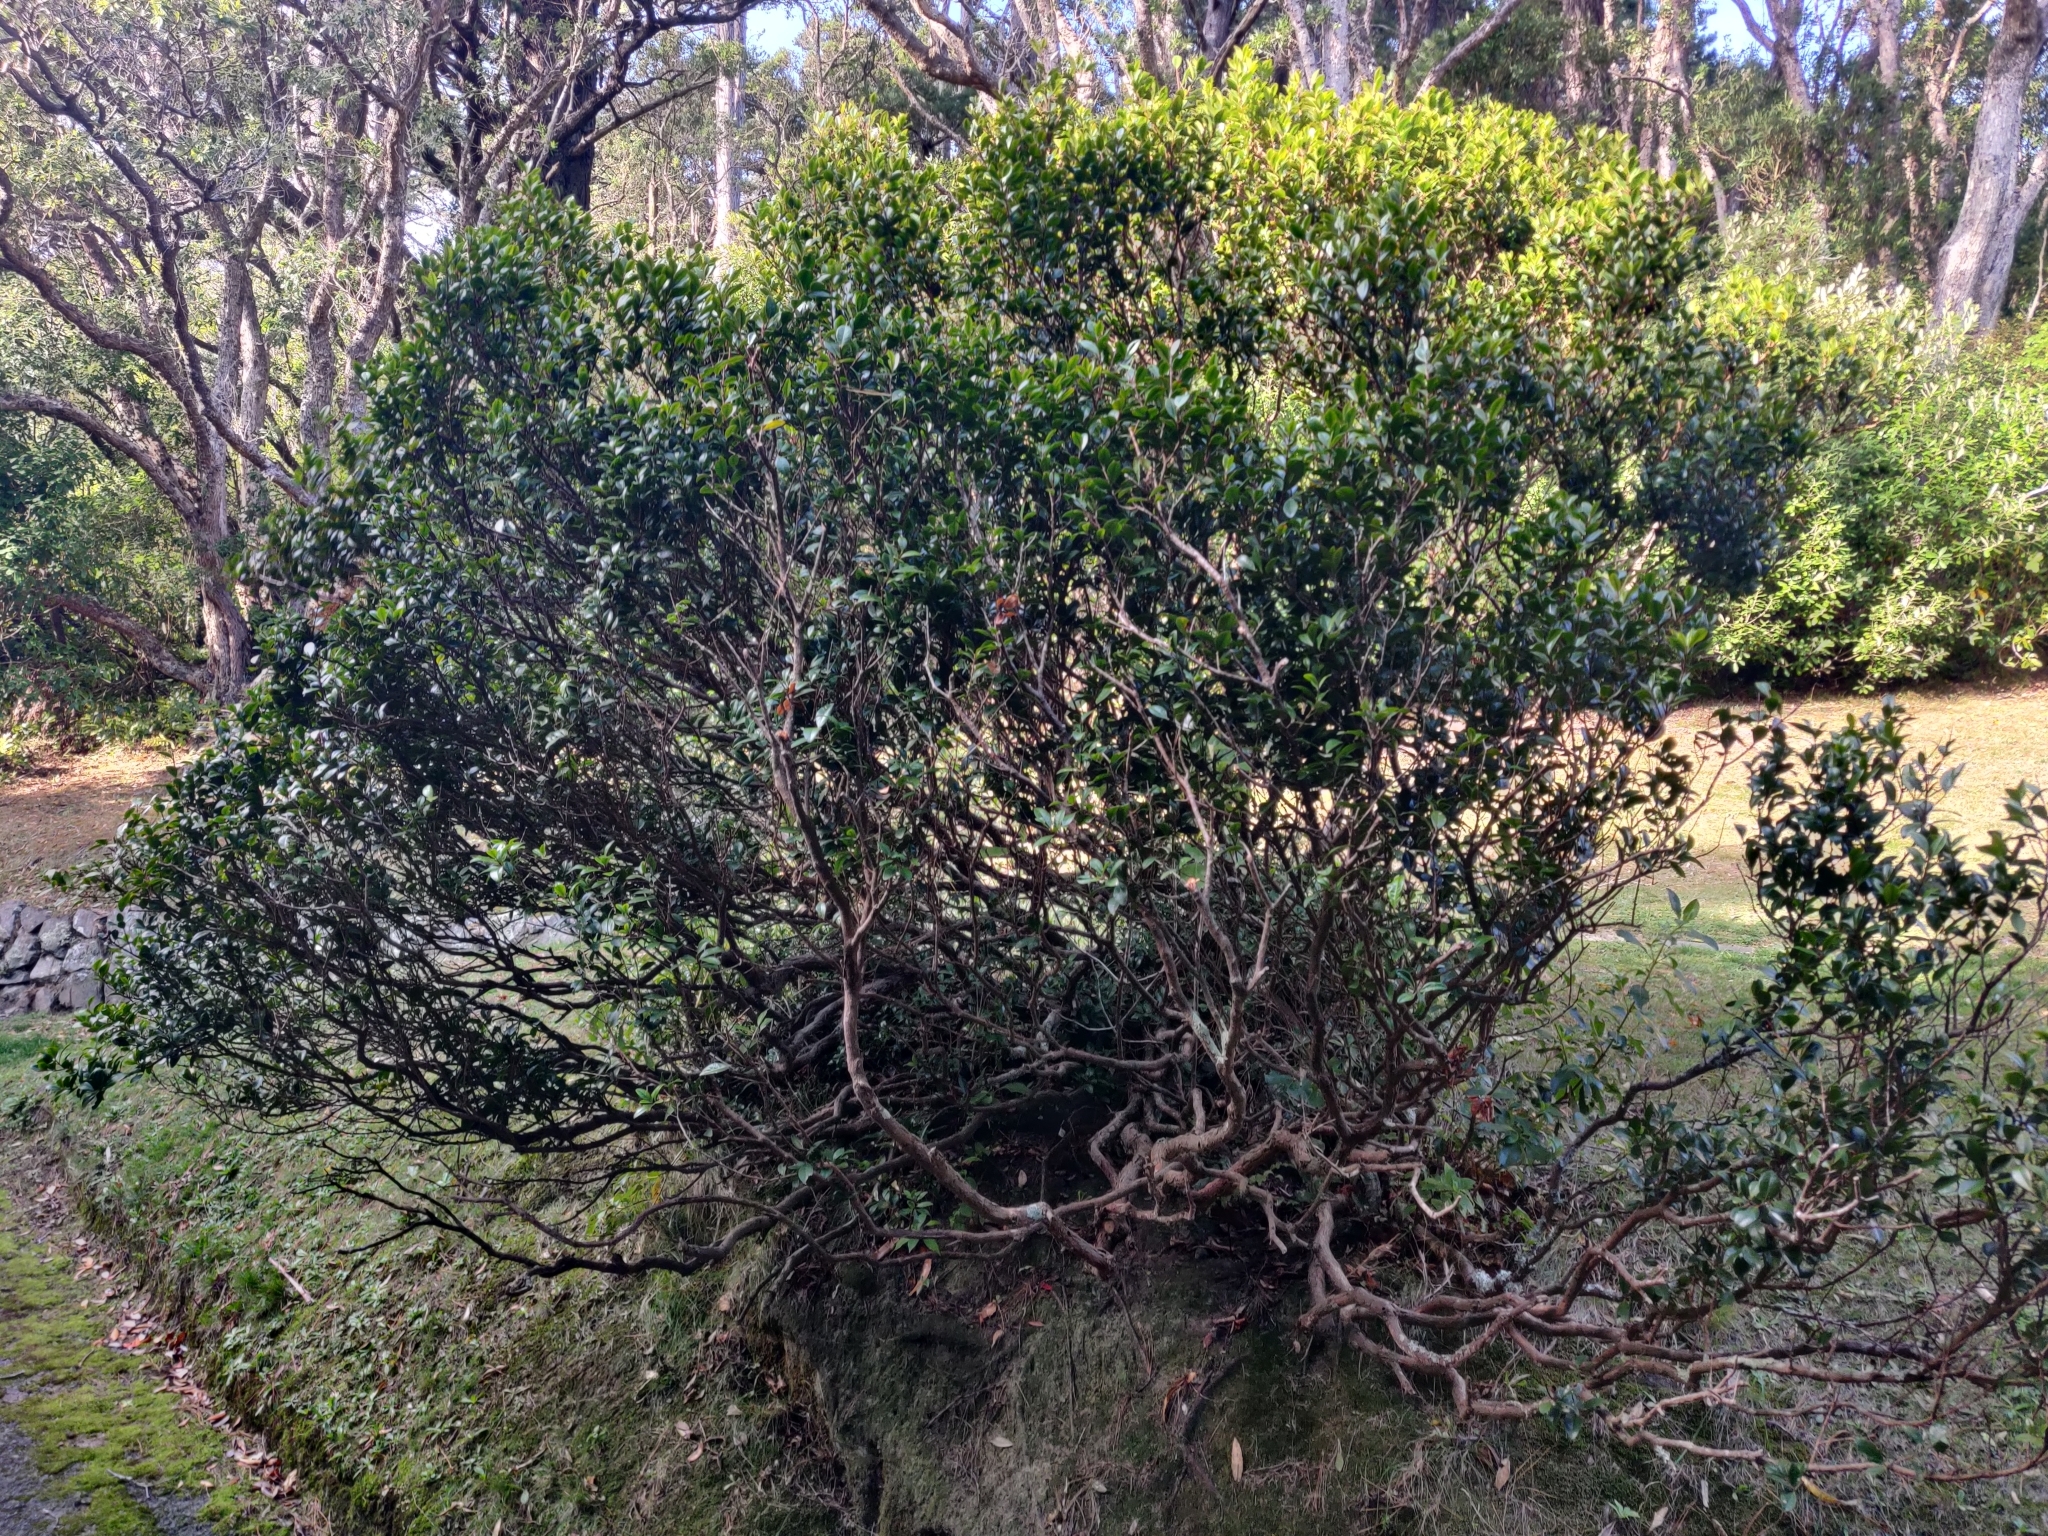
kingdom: Plantae
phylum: Tracheophyta
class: Magnoliopsida
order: Myrtales
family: Myrtaceae
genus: Metrosideros
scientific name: Metrosideros fulgens
